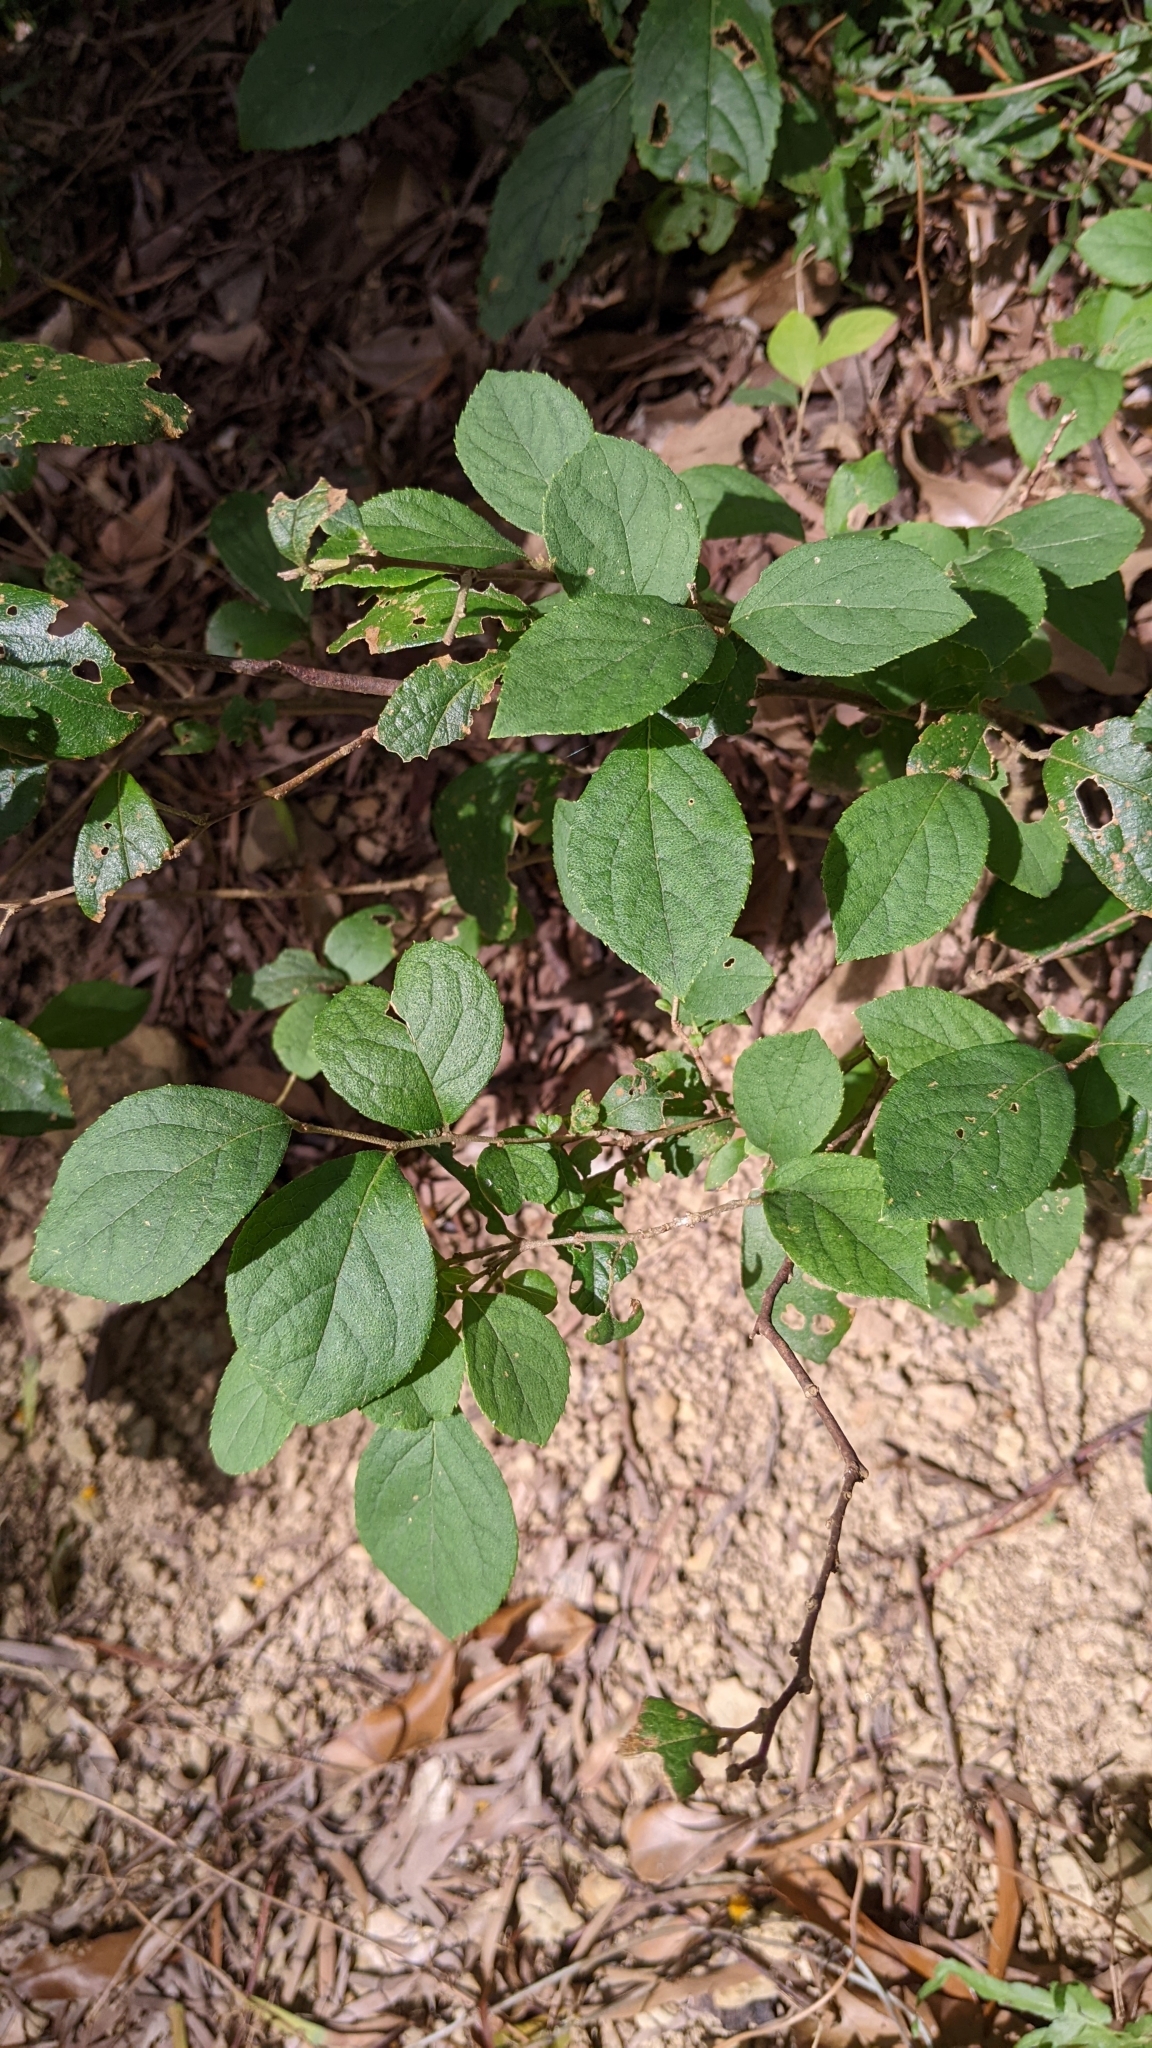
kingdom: Plantae
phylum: Tracheophyta
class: Magnoliopsida
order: Ericales
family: Symplocaceae
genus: Symplocos
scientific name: Symplocos paniculata
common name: Sapphire-berry
